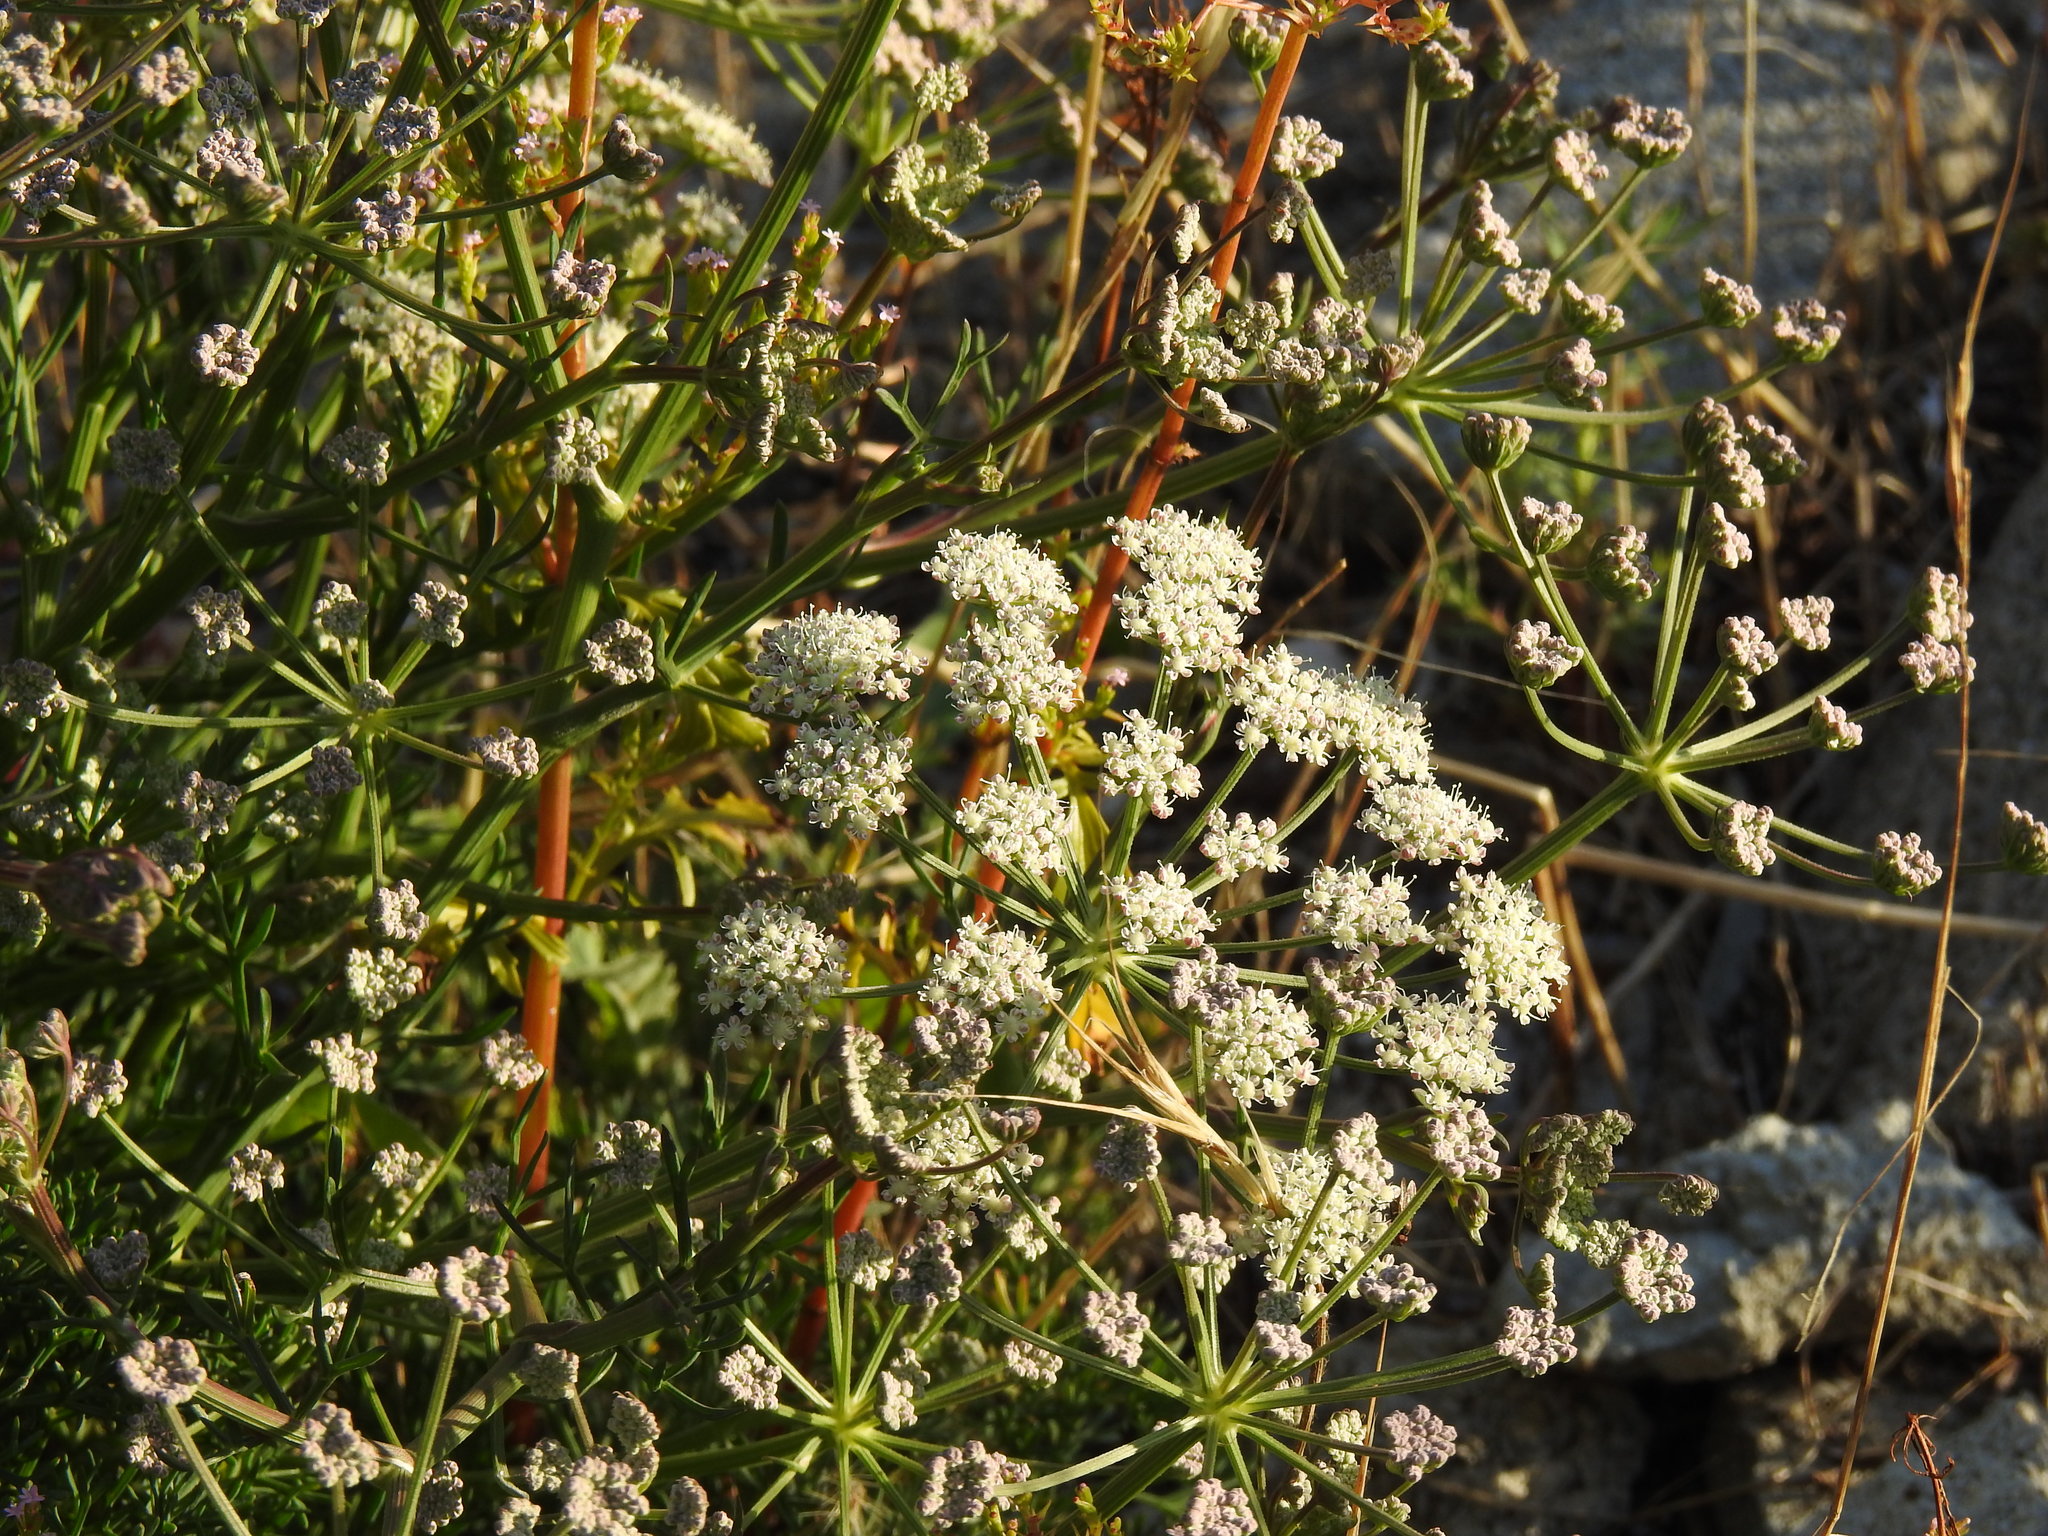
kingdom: Plantae
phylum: Tracheophyta
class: Magnoliopsida
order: Apiales
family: Apiaceae
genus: Seseli
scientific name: Seseli tortuosum
